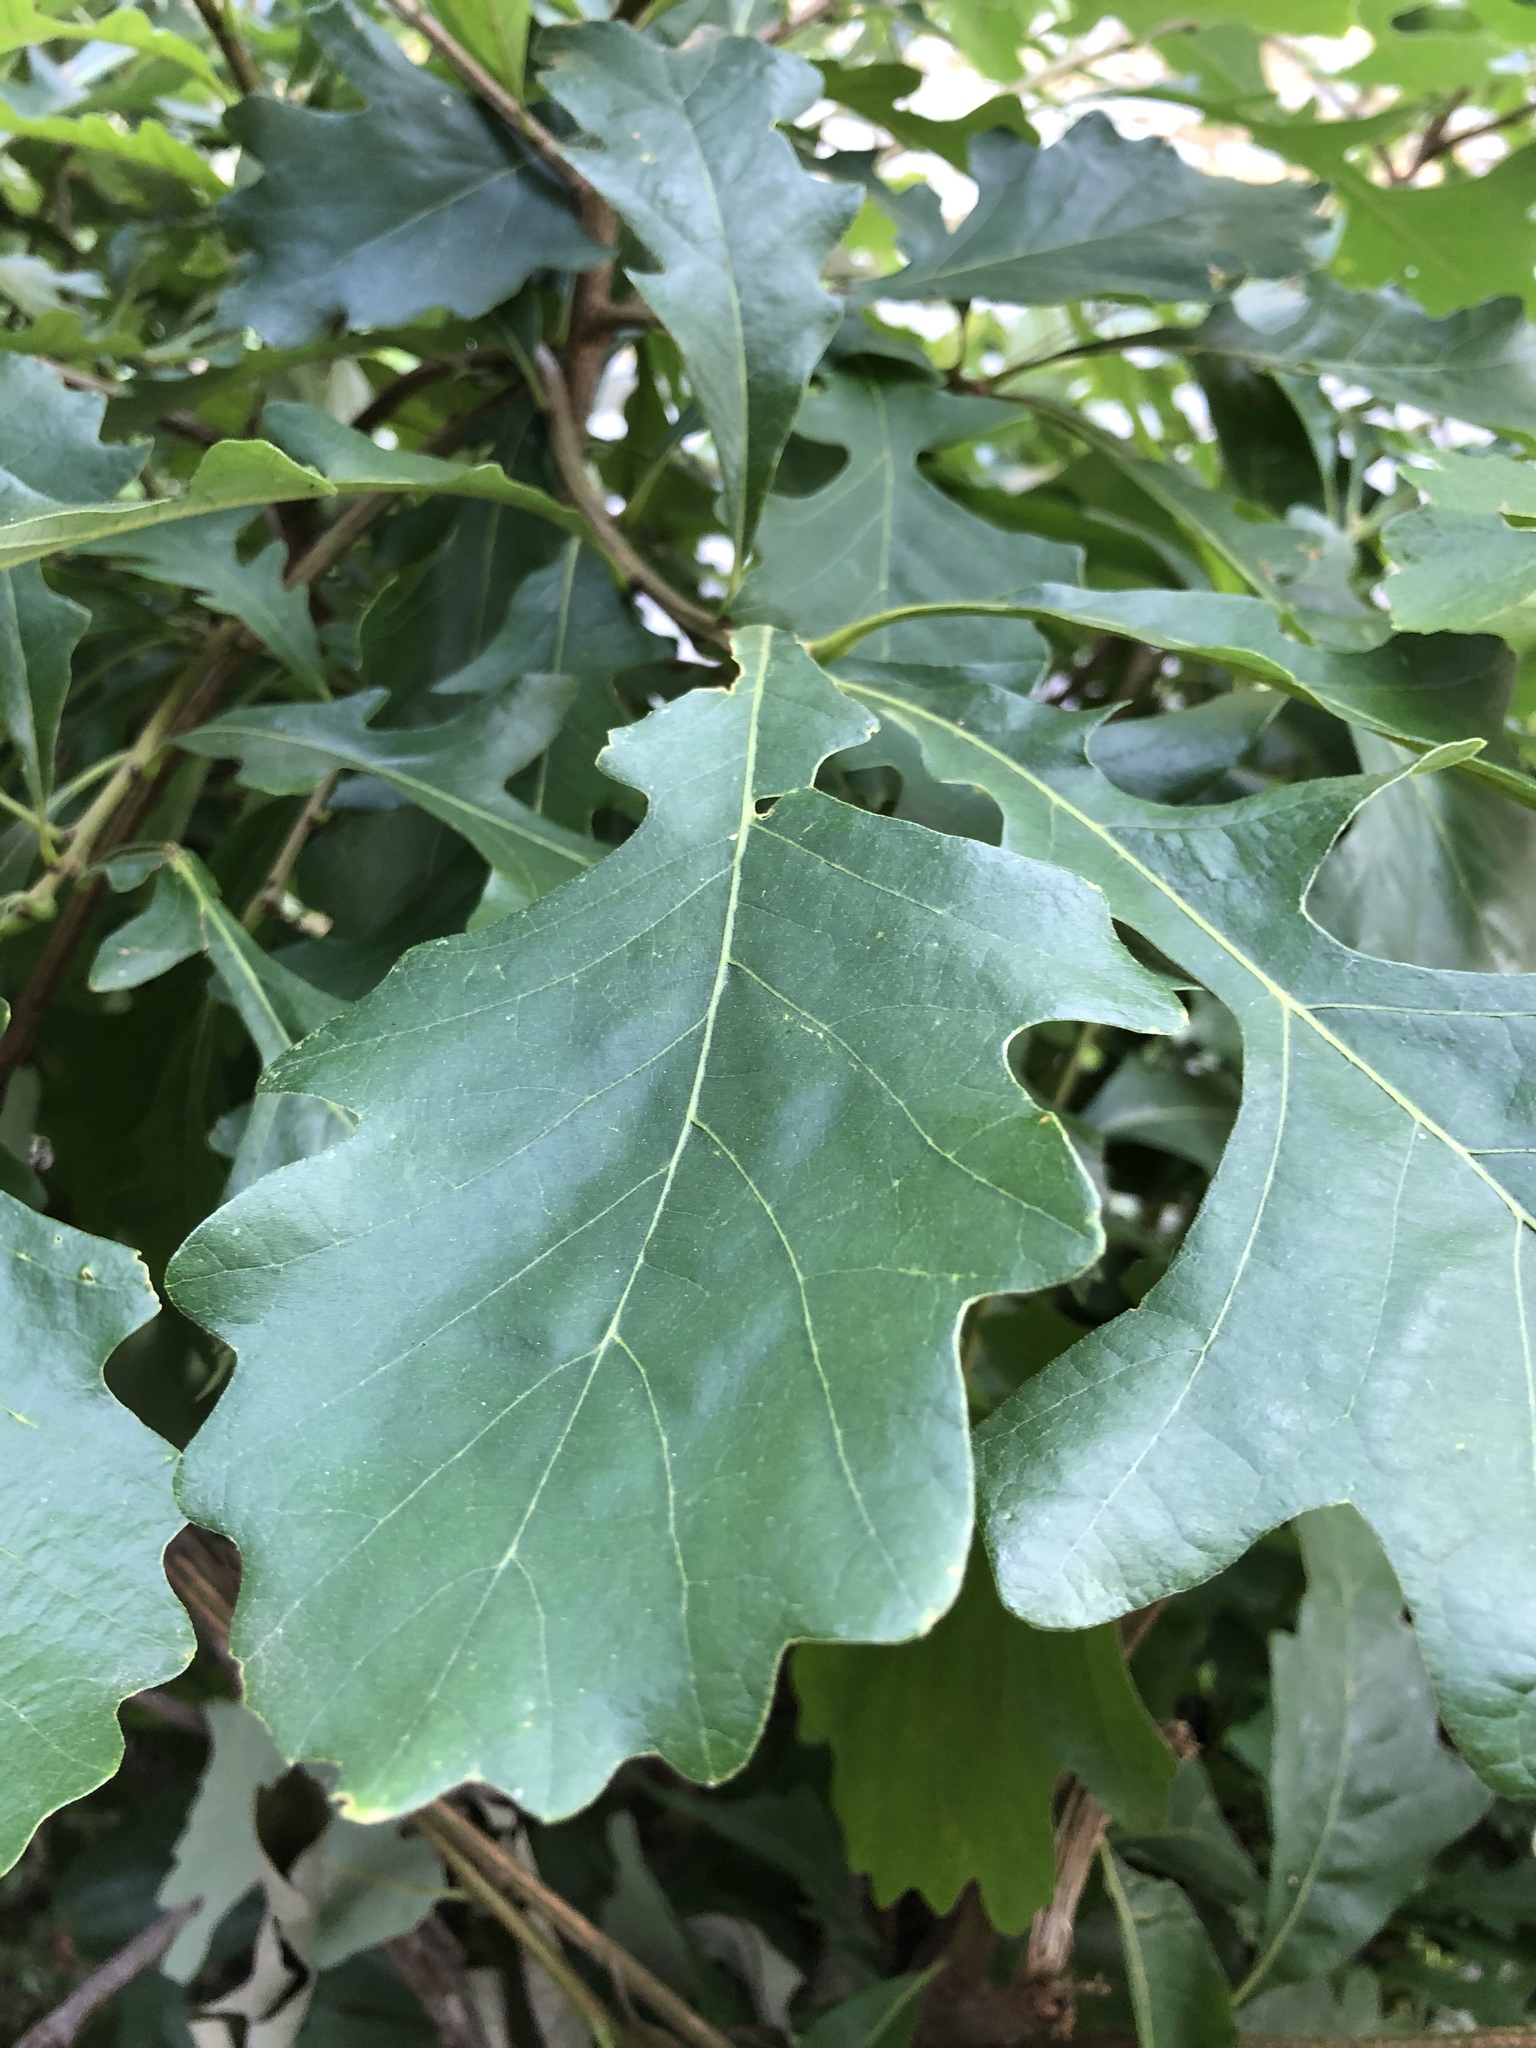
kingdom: Plantae
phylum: Tracheophyta
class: Magnoliopsida
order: Fagales
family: Fagaceae
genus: Quercus
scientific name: Quercus macrocarpa
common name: Bur oak
